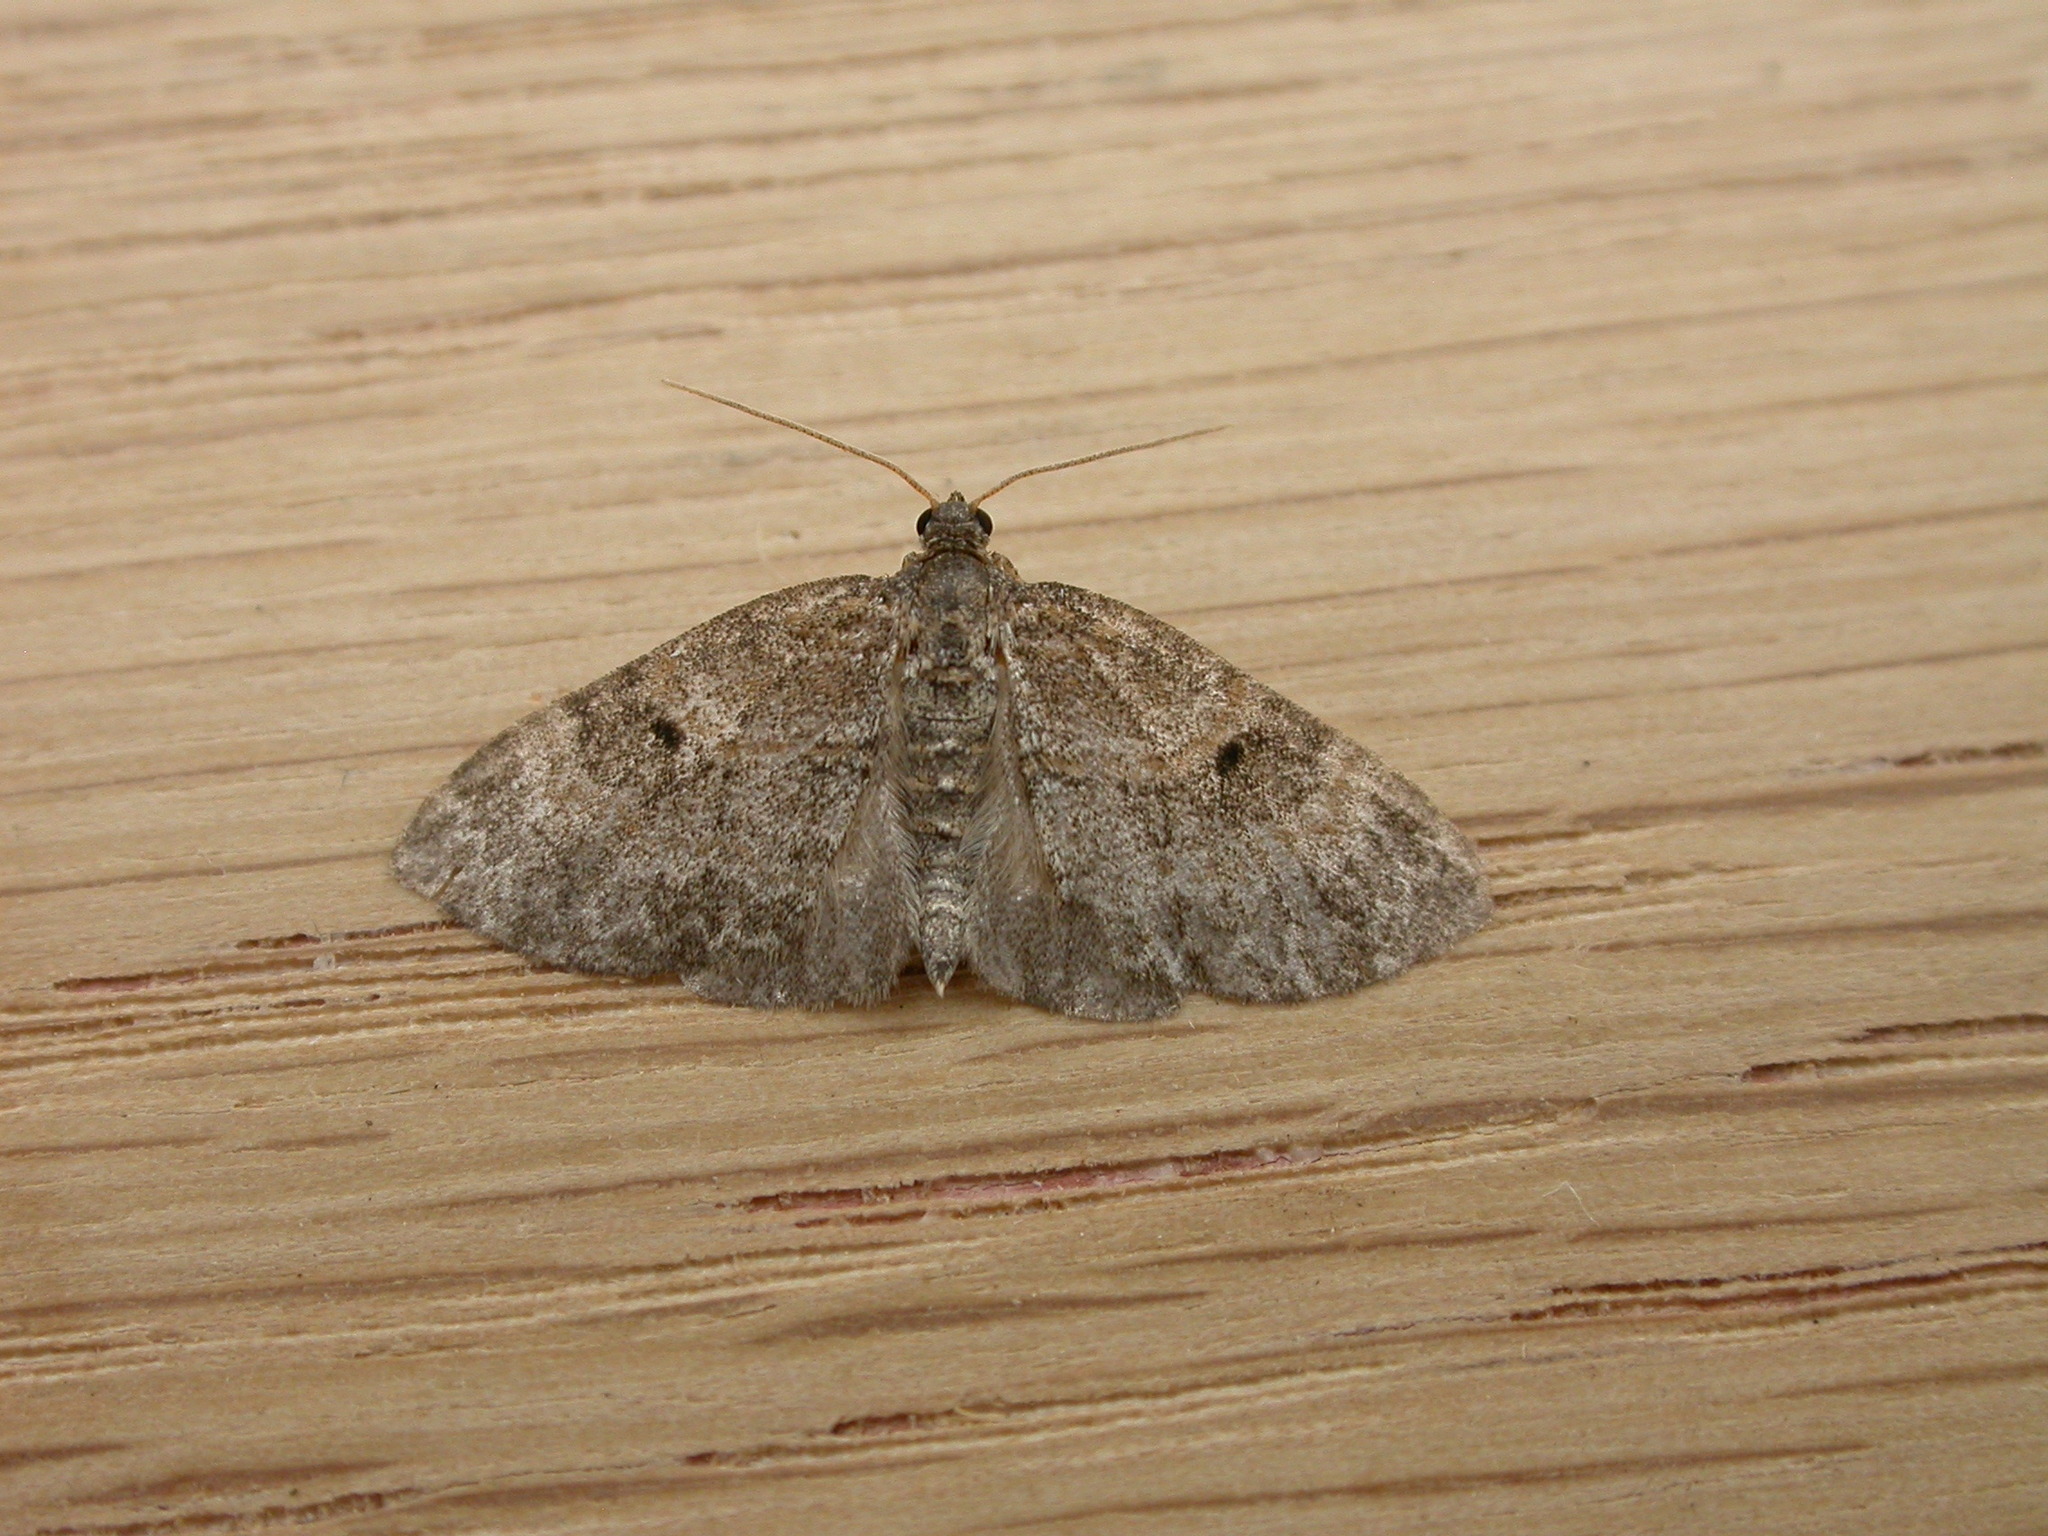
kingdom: Animalia
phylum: Arthropoda
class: Insecta
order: Lepidoptera
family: Geometridae
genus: Pterapherapteryx
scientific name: Pterapherapteryx sexalata
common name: Small seraphim
